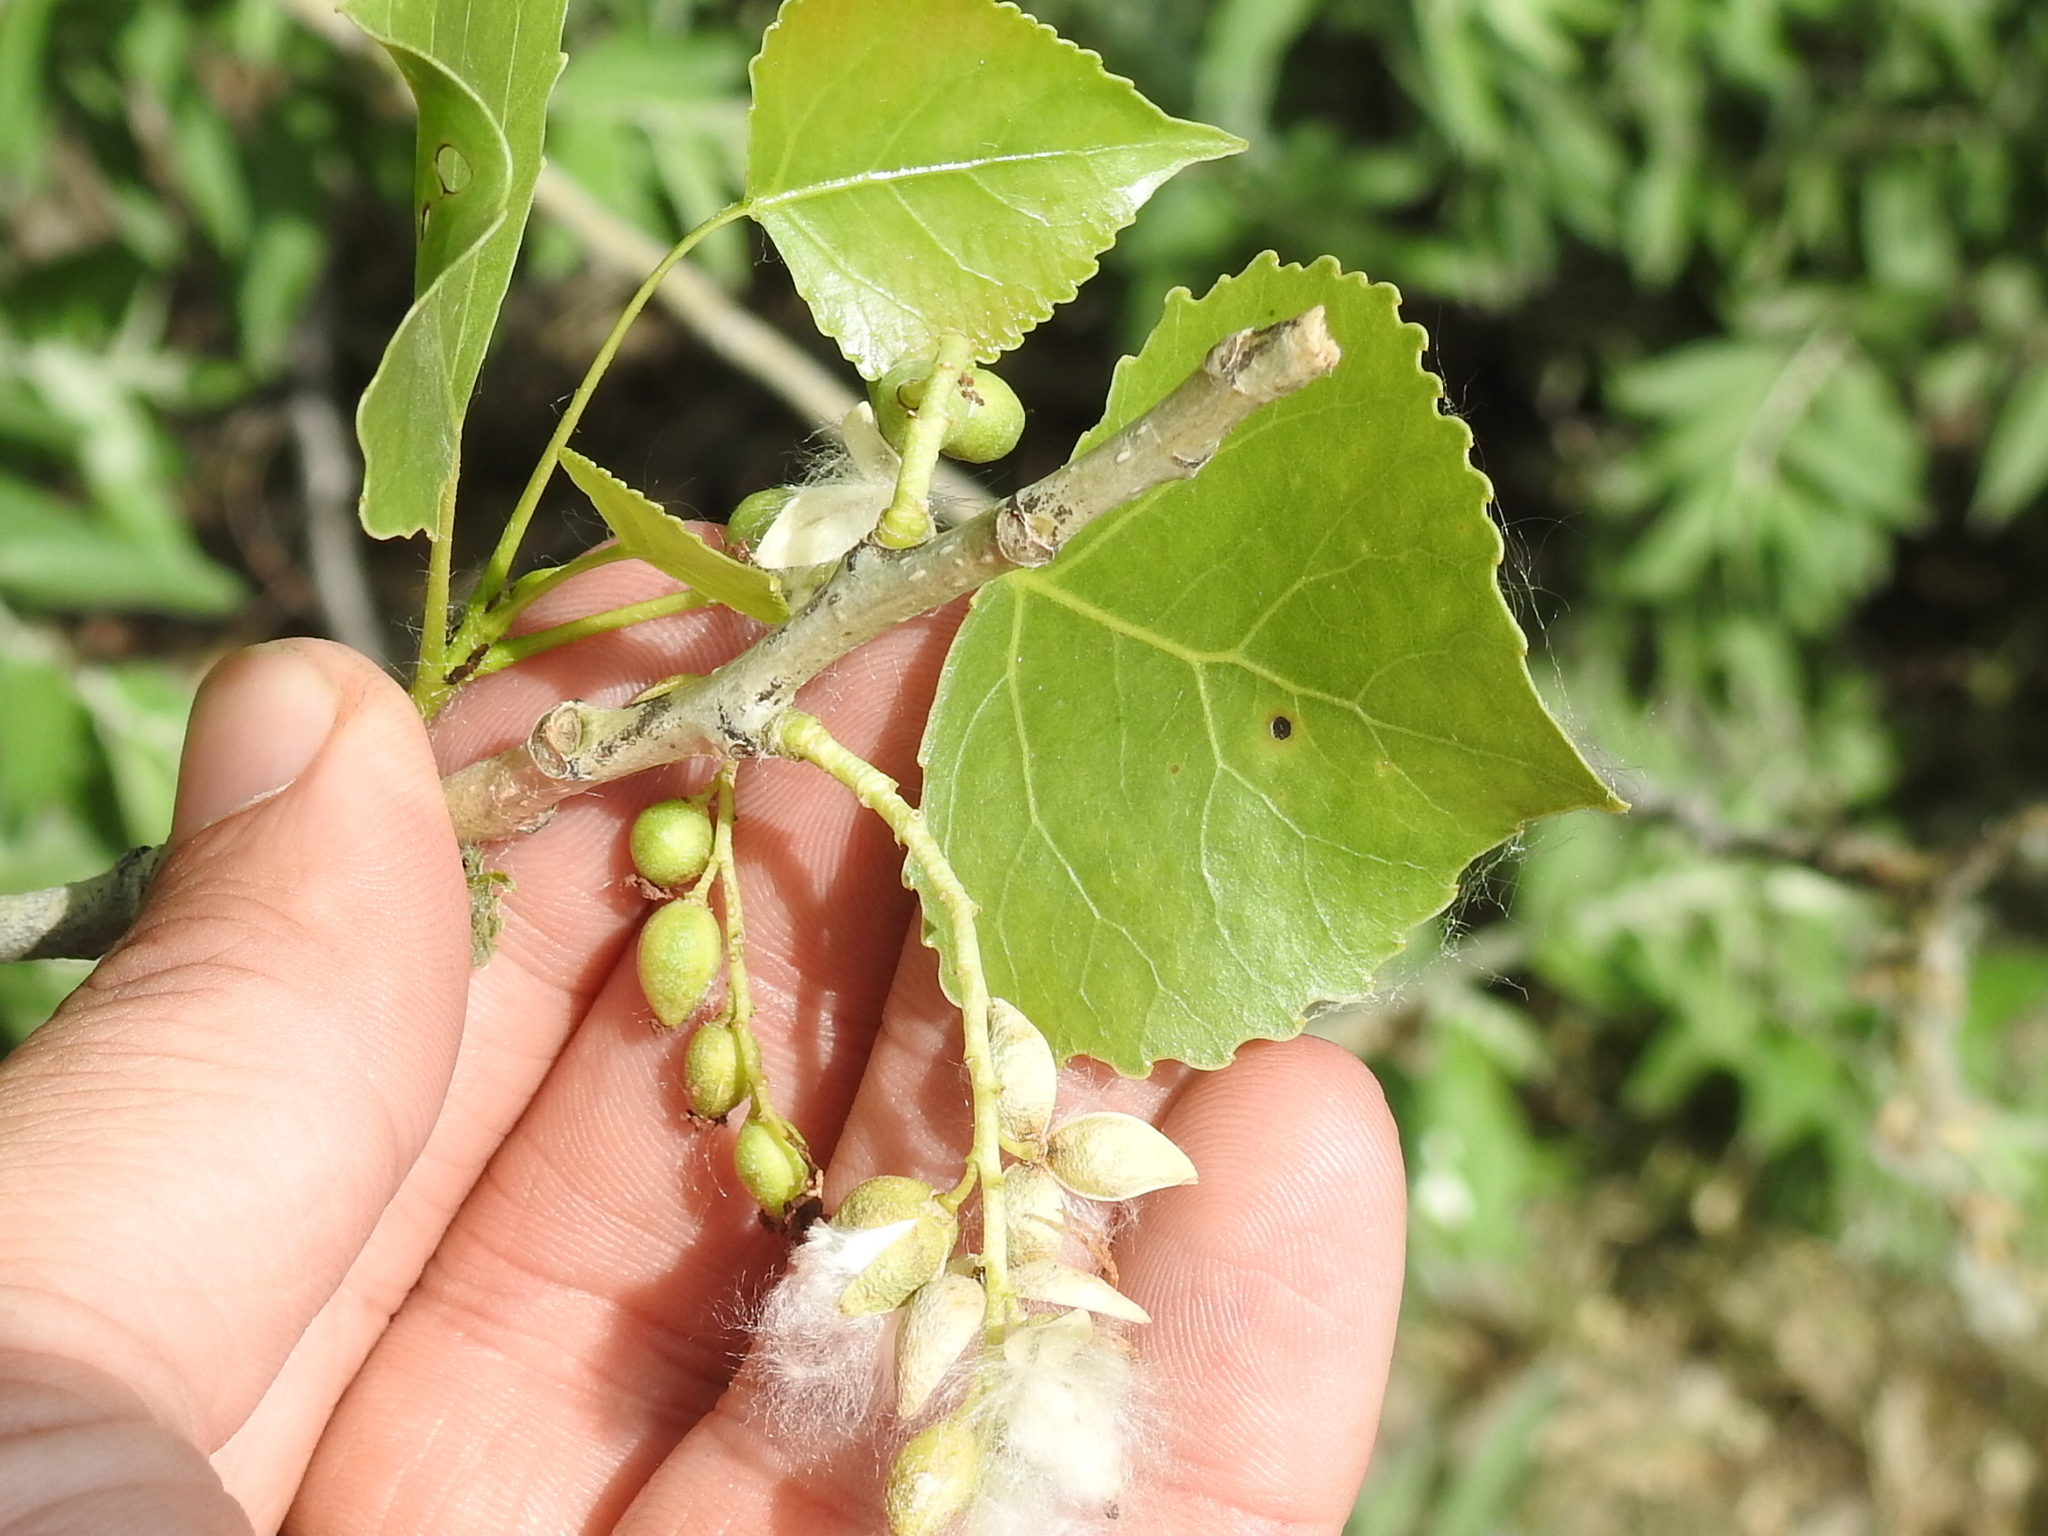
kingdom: Plantae
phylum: Tracheophyta
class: Magnoliopsida
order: Malpighiales
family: Salicaceae
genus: Populus
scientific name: Populus deltoides
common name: Eastern cottonwood
